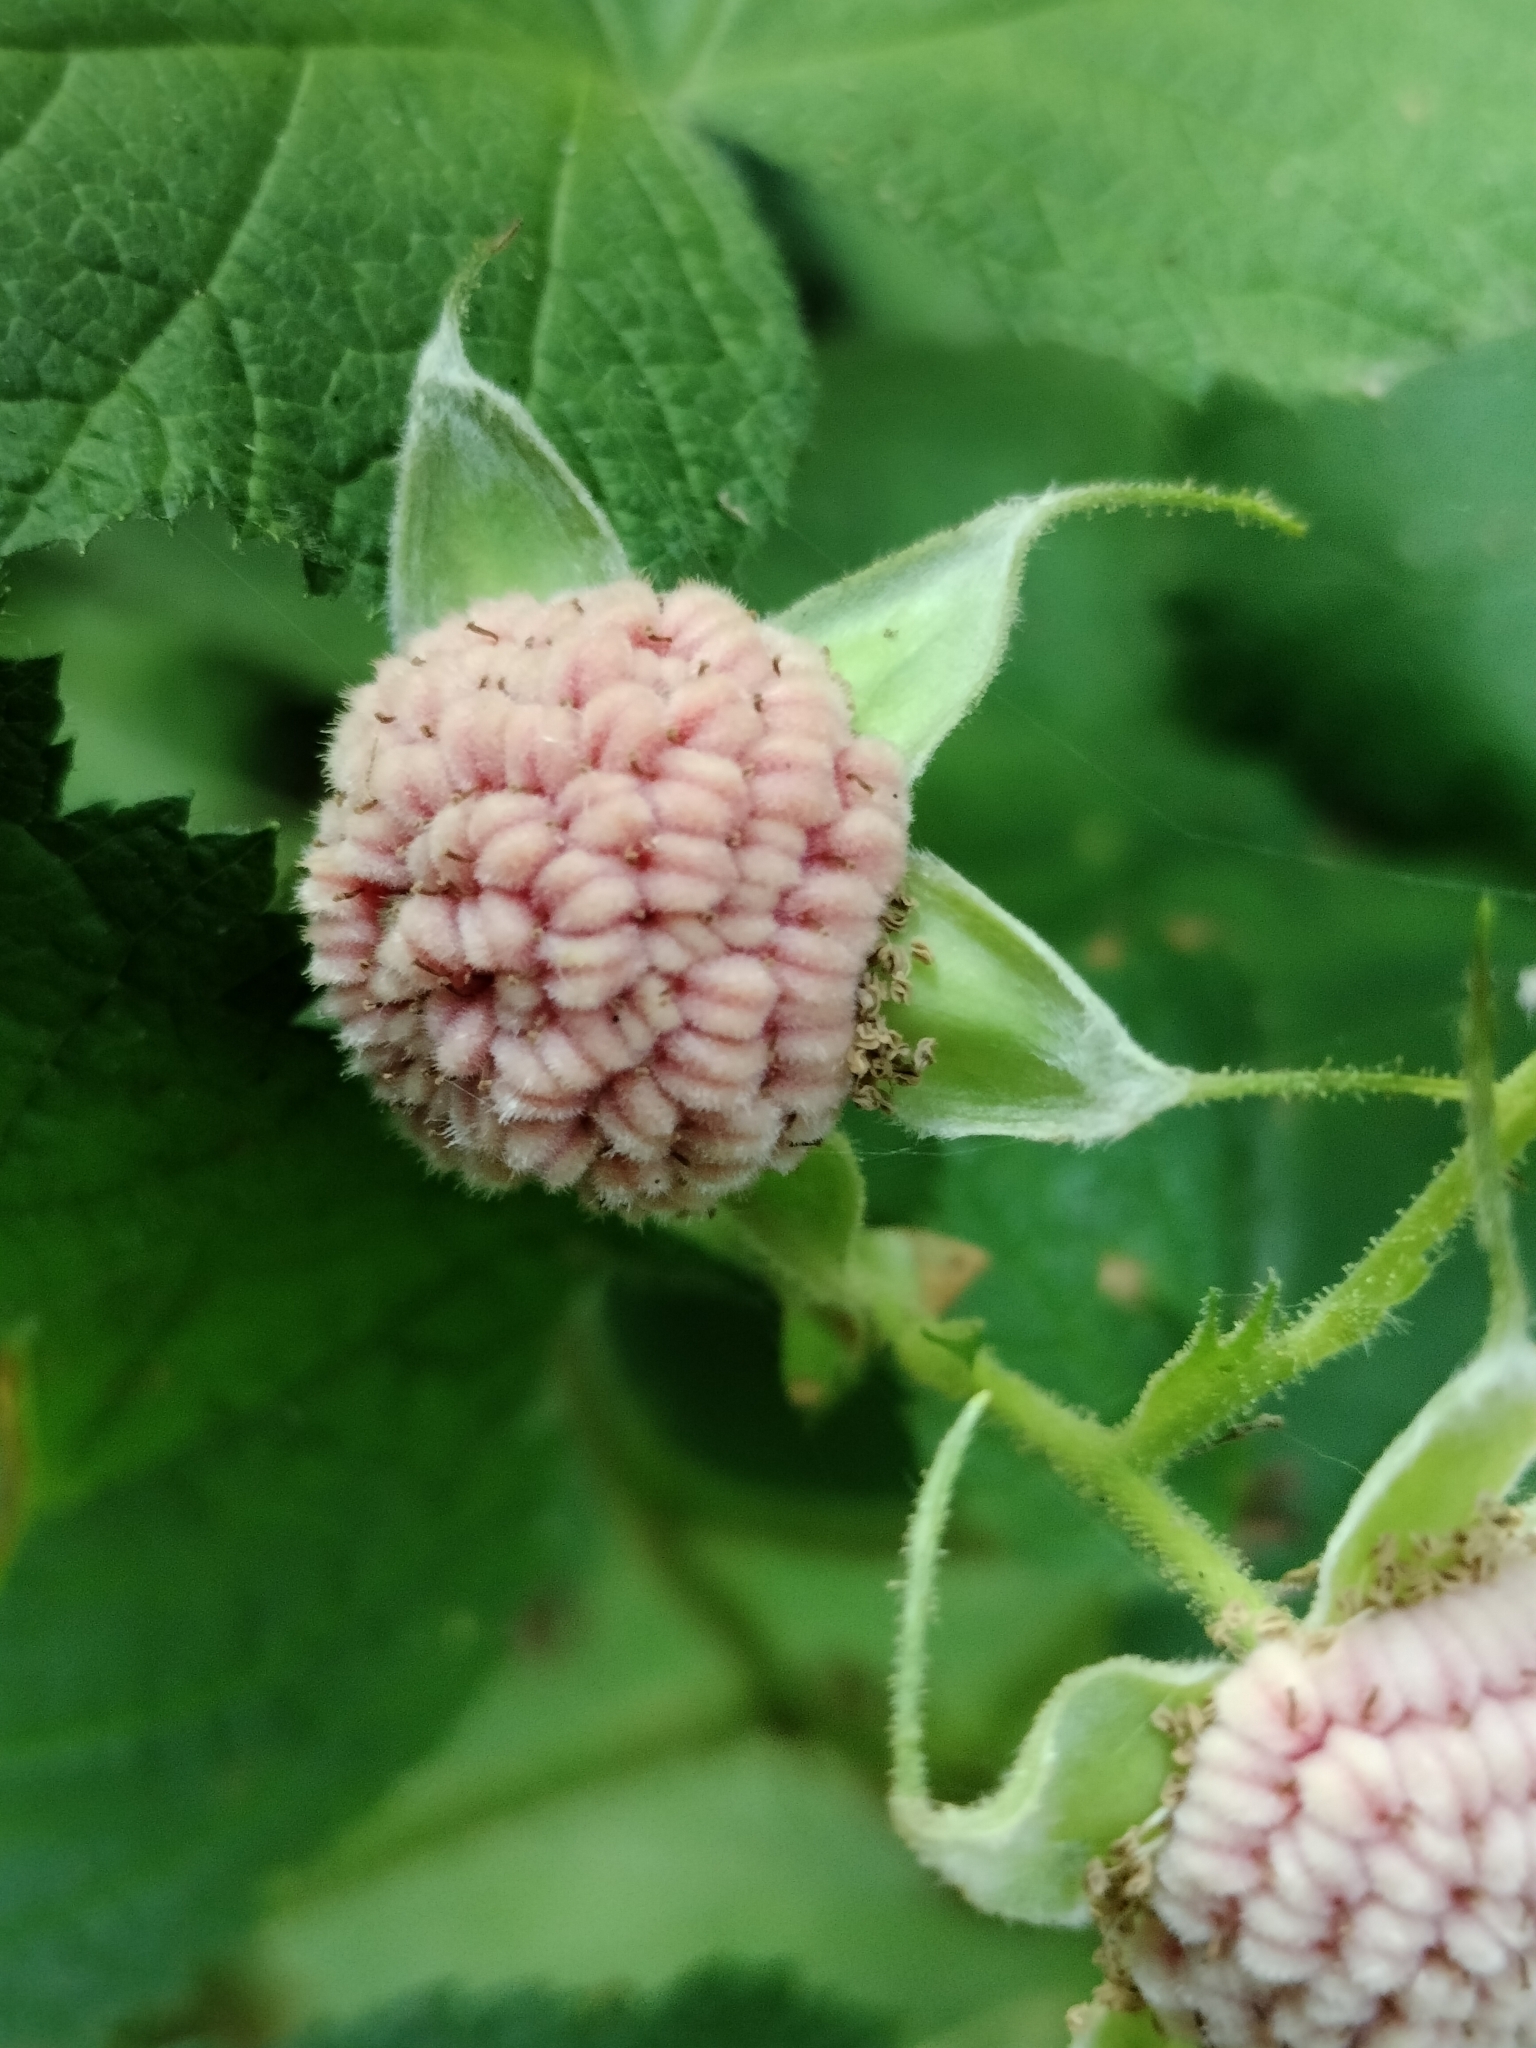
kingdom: Plantae
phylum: Tracheophyta
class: Magnoliopsida
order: Rosales
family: Rosaceae
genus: Rubus
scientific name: Rubus parviflorus
